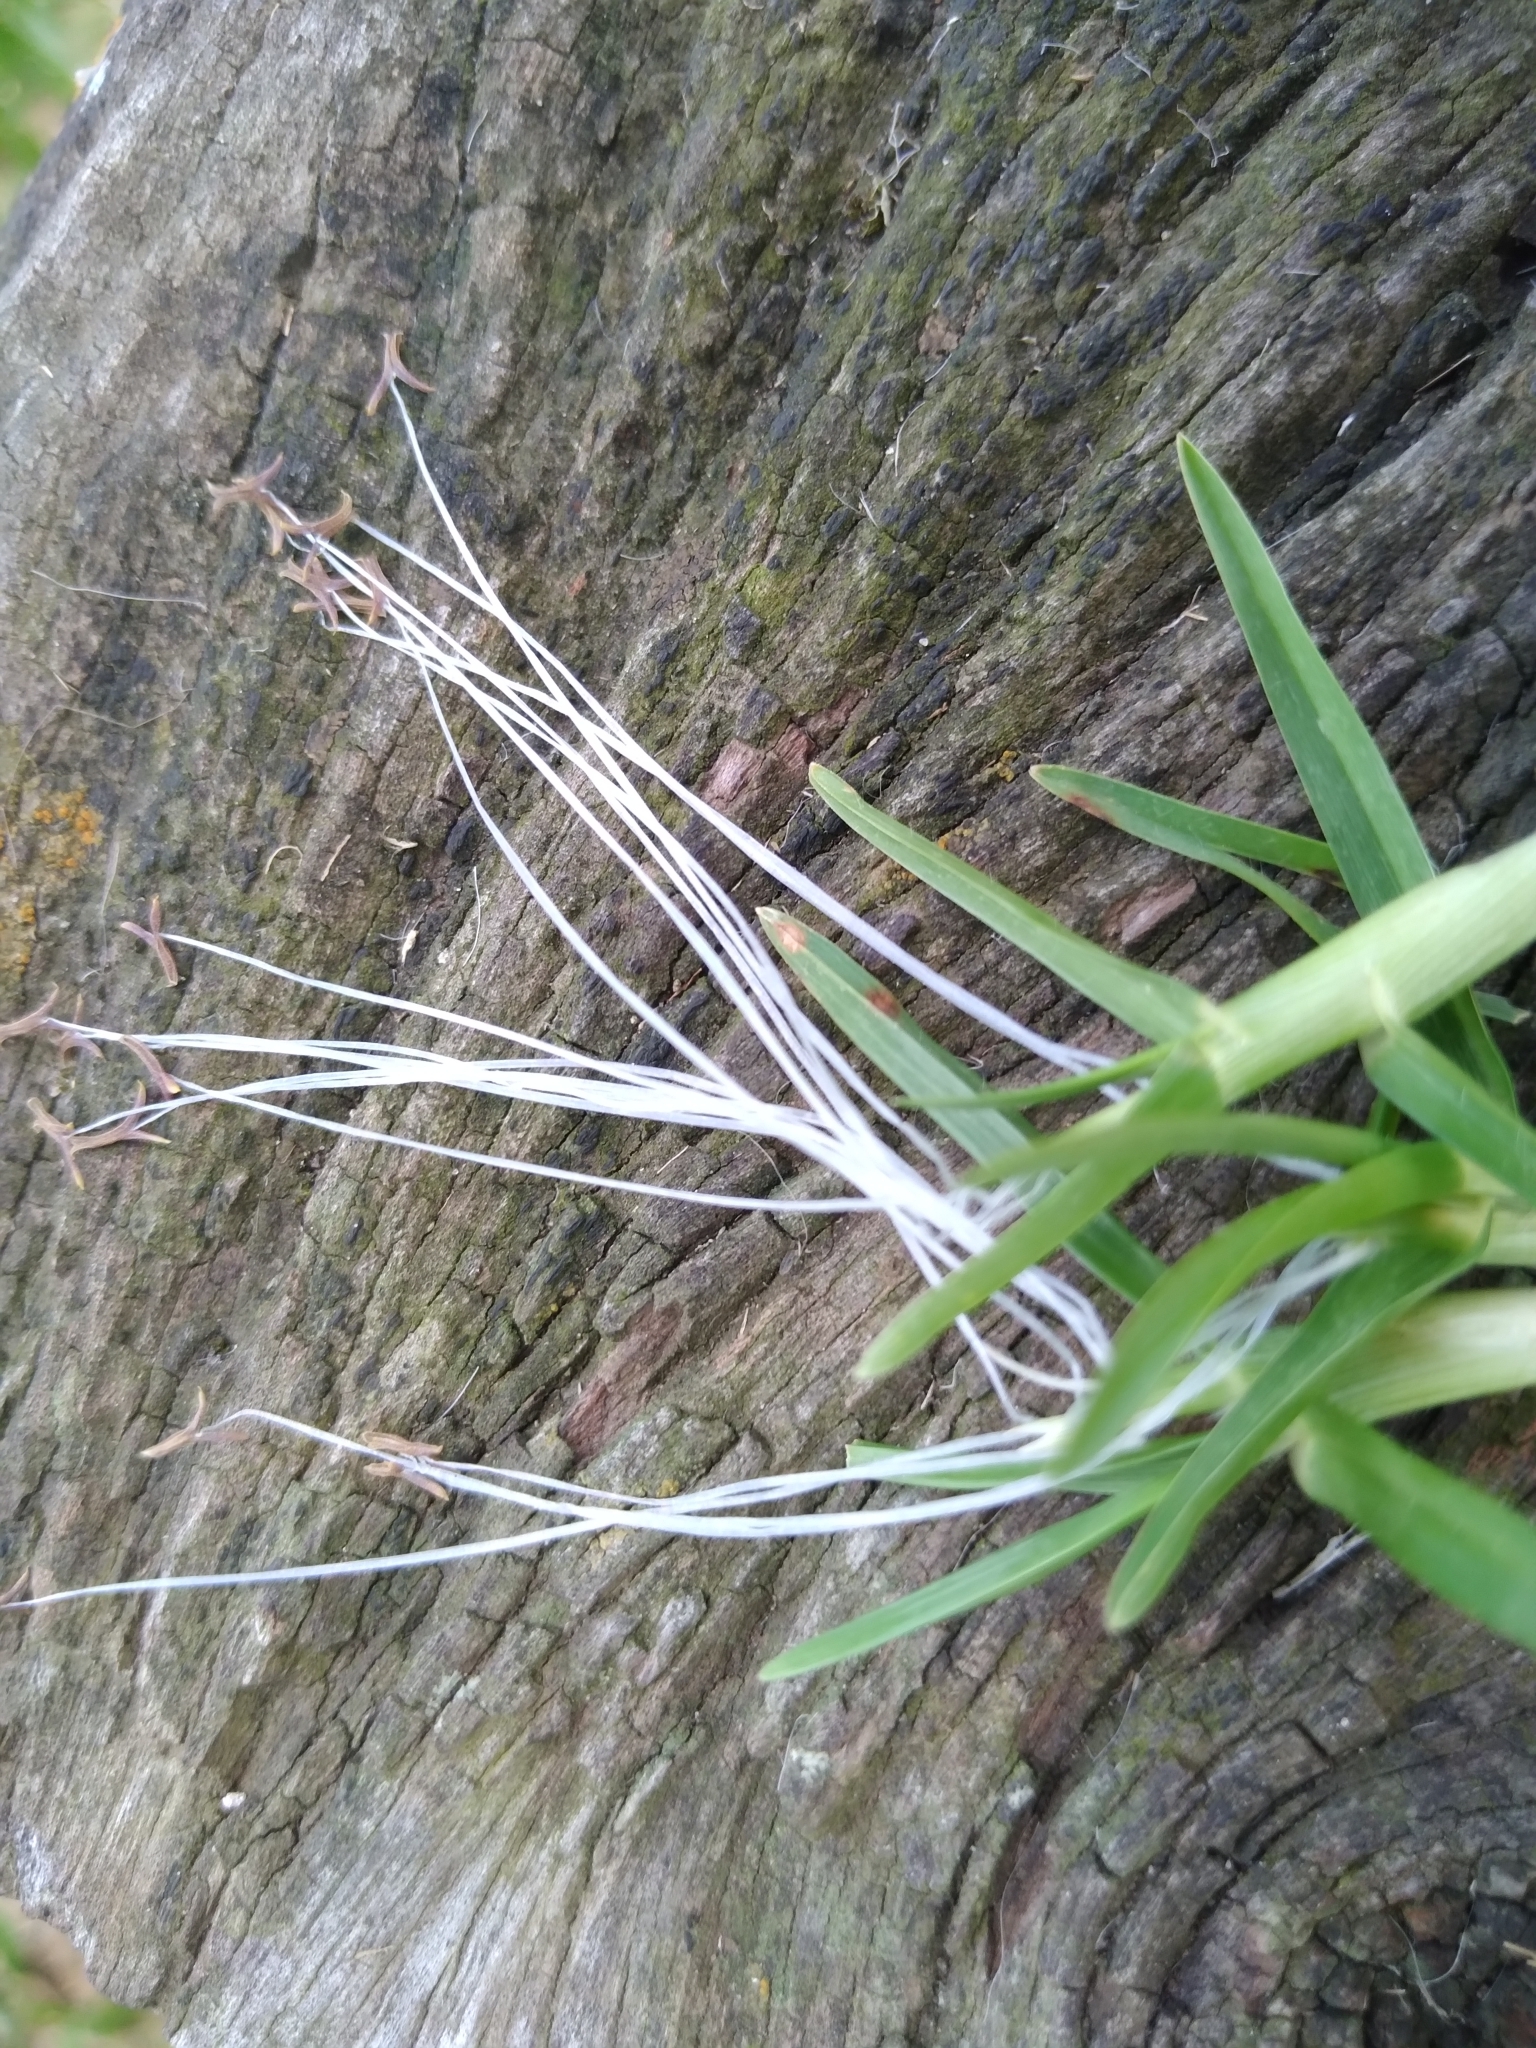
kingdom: Plantae
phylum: Tracheophyta
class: Liliopsida
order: Poales
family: Poaceae
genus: Cenchrus
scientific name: Cenchrus clandestinus
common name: Kikuyugrass
